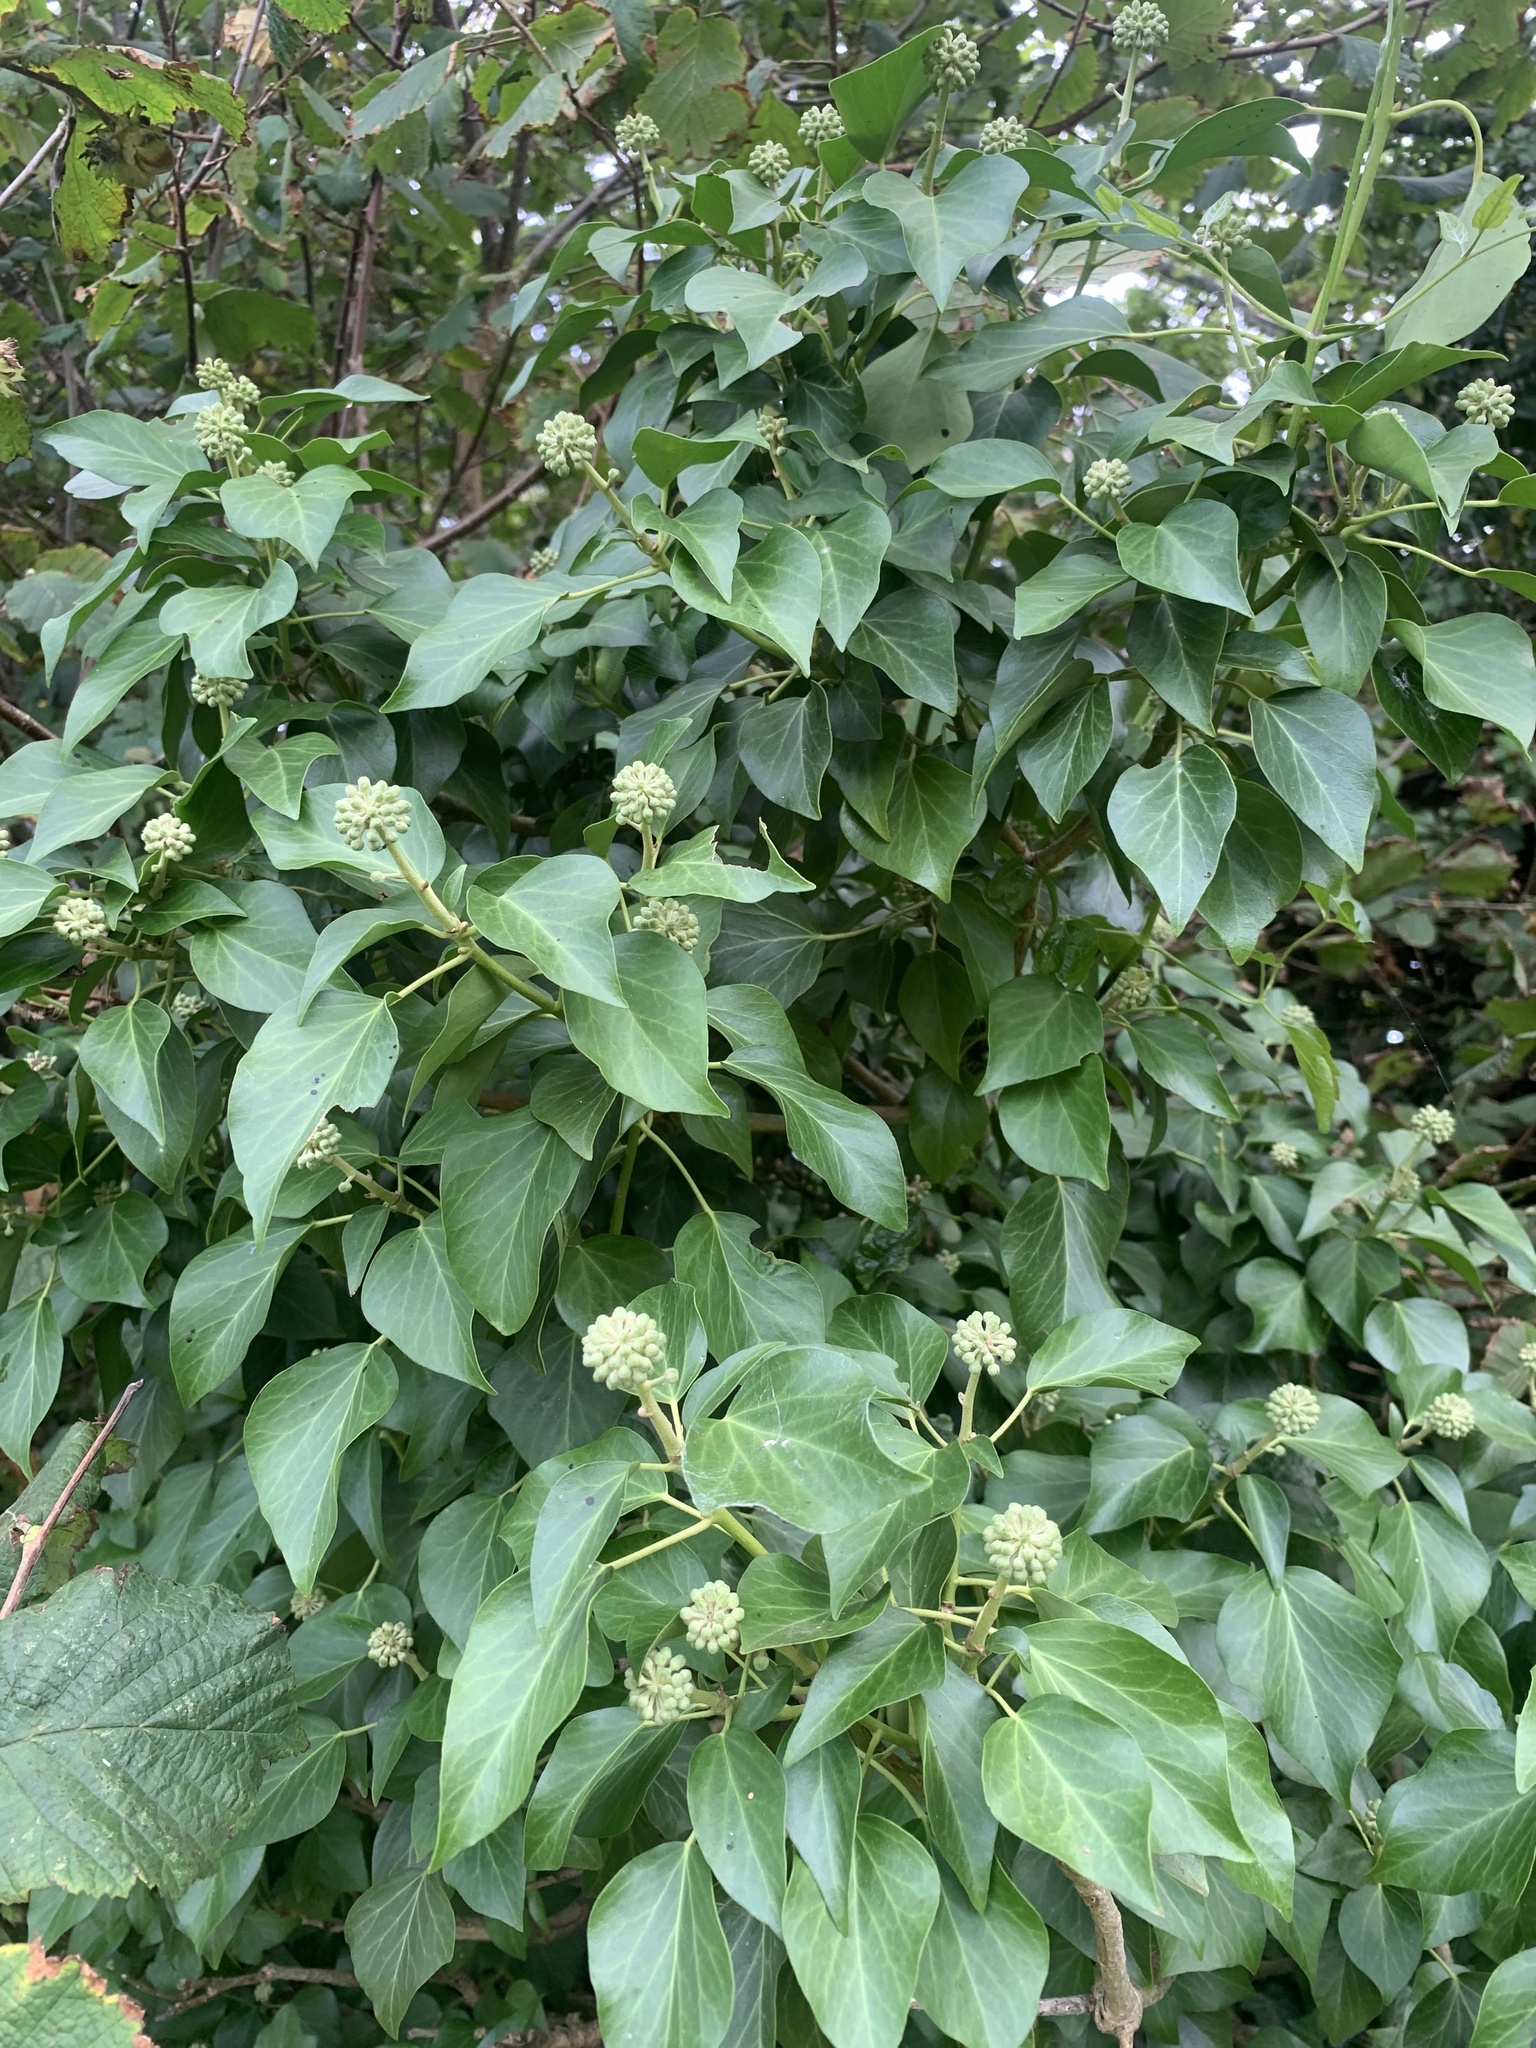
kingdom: Plantae
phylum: Tracheophyta
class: Magnoliopsida
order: Apiales
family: Araliaceae
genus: Hedera
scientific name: Hedera helix
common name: Ivy
